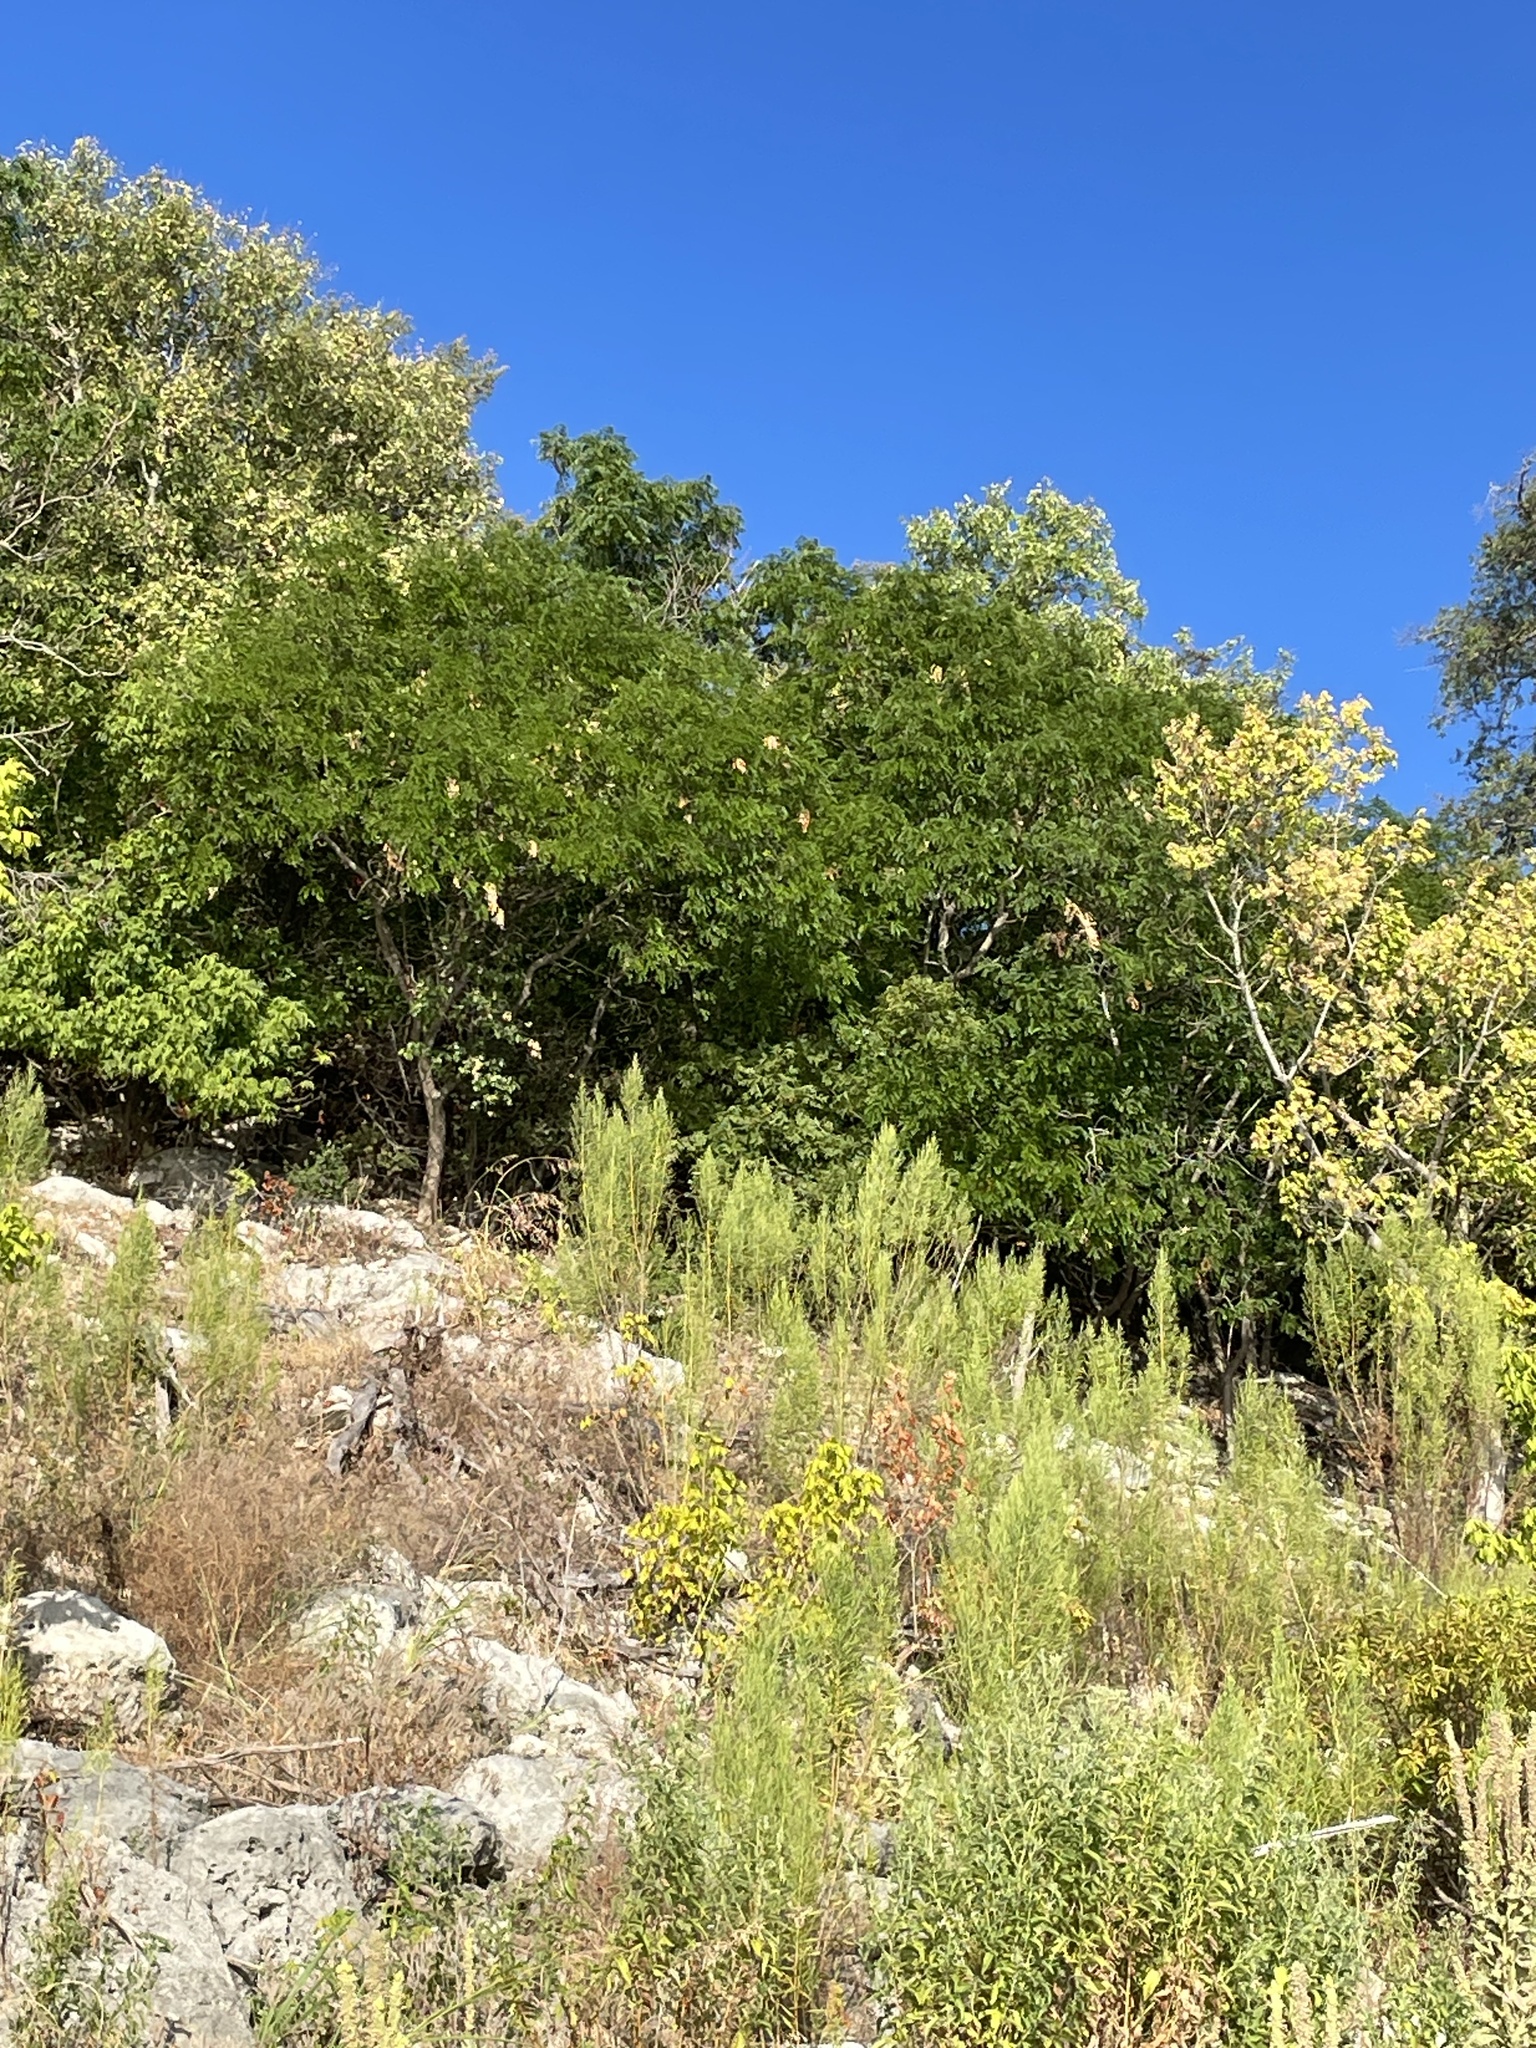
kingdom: Plantae
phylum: Tracheophyta
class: Magnoliopsida
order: Fabales
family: Fabaceae
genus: Styphnolobium
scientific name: Styphnolobium affine
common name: Texas sophora
